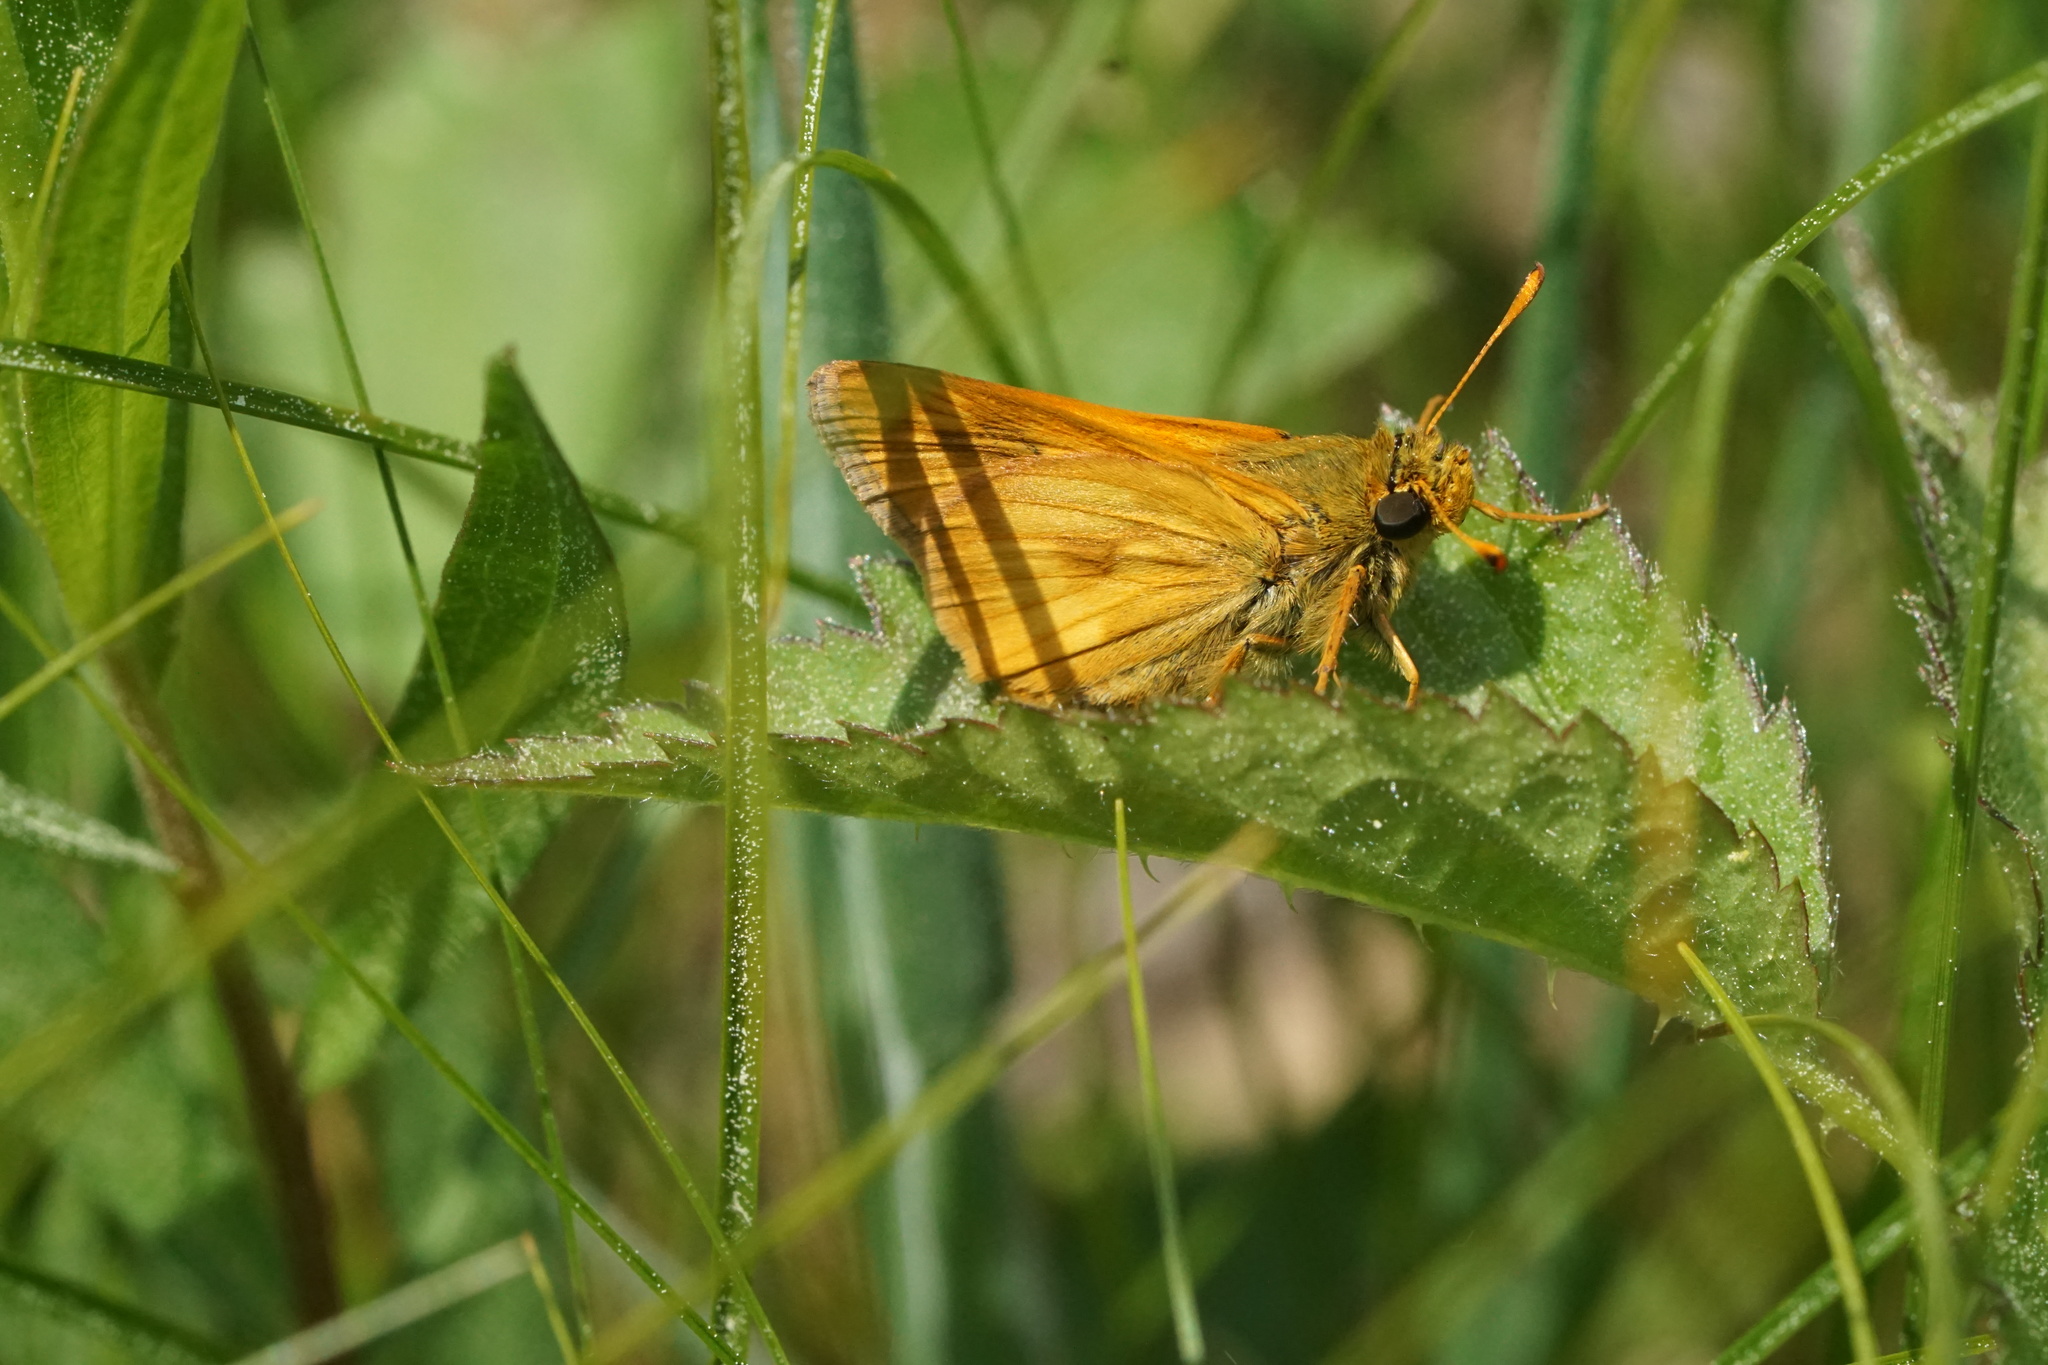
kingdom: Animalia
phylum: Arthropoda
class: Insecta
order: Lepidoptera
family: Hesperiidae
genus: Polites
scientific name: Polites mystic
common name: Long dash
